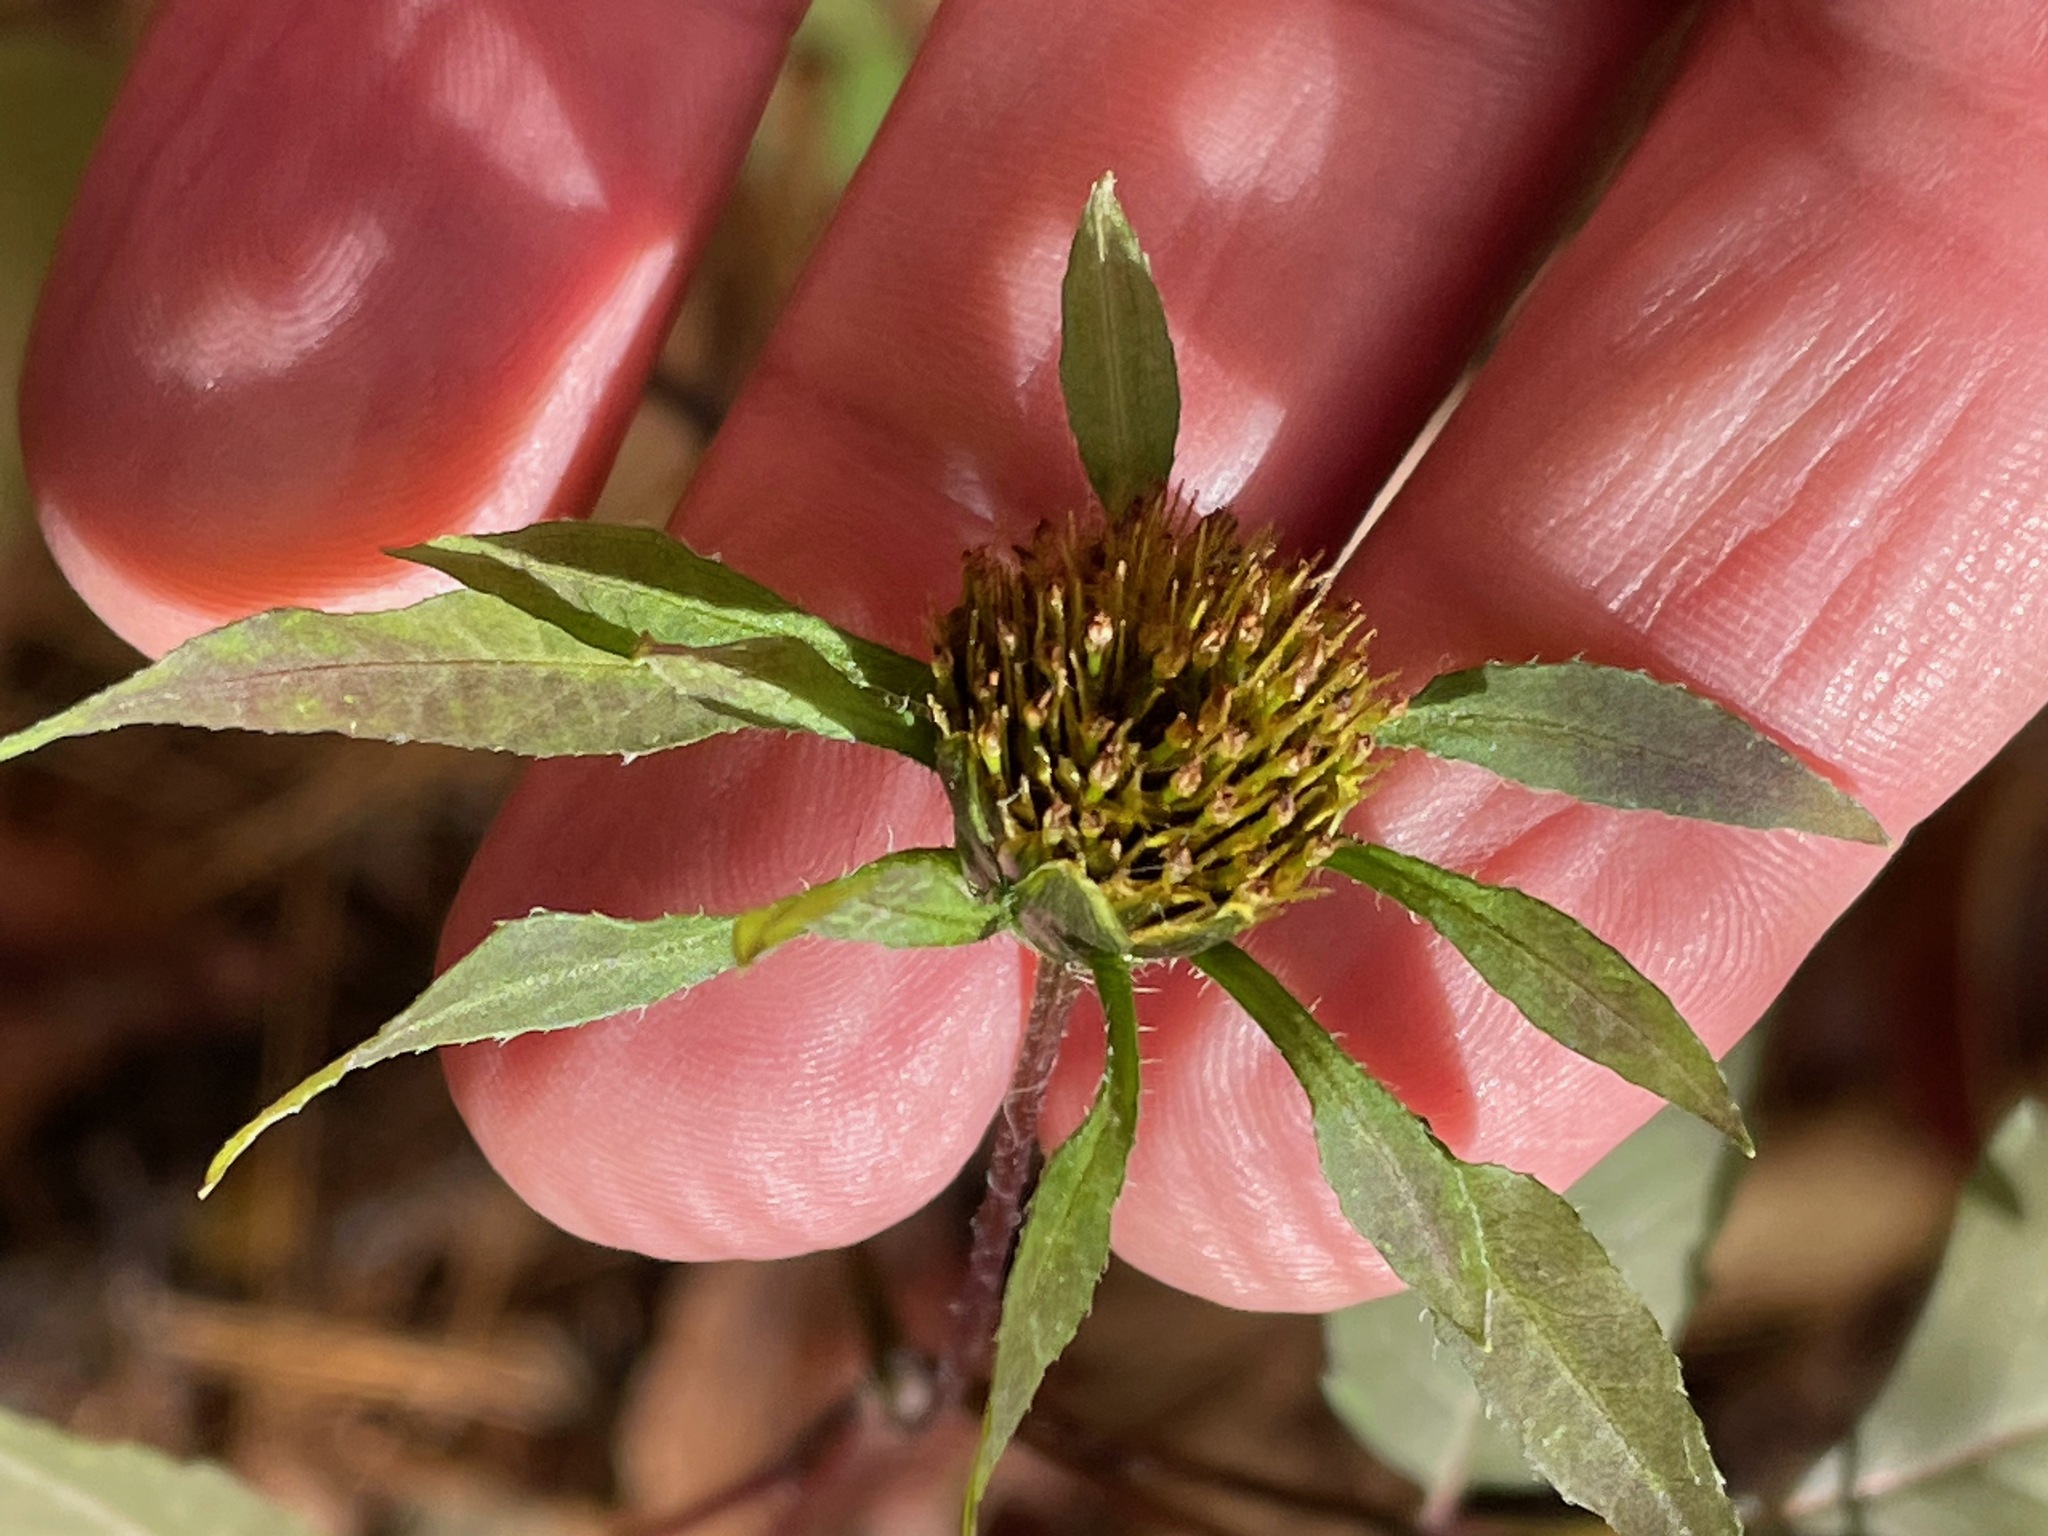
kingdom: Plantae
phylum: Tracheophyta
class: Magnoliopsida
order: Asterales
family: Asteraceae
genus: Bidens
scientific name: Bidens frondosa
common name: Beggarticks
